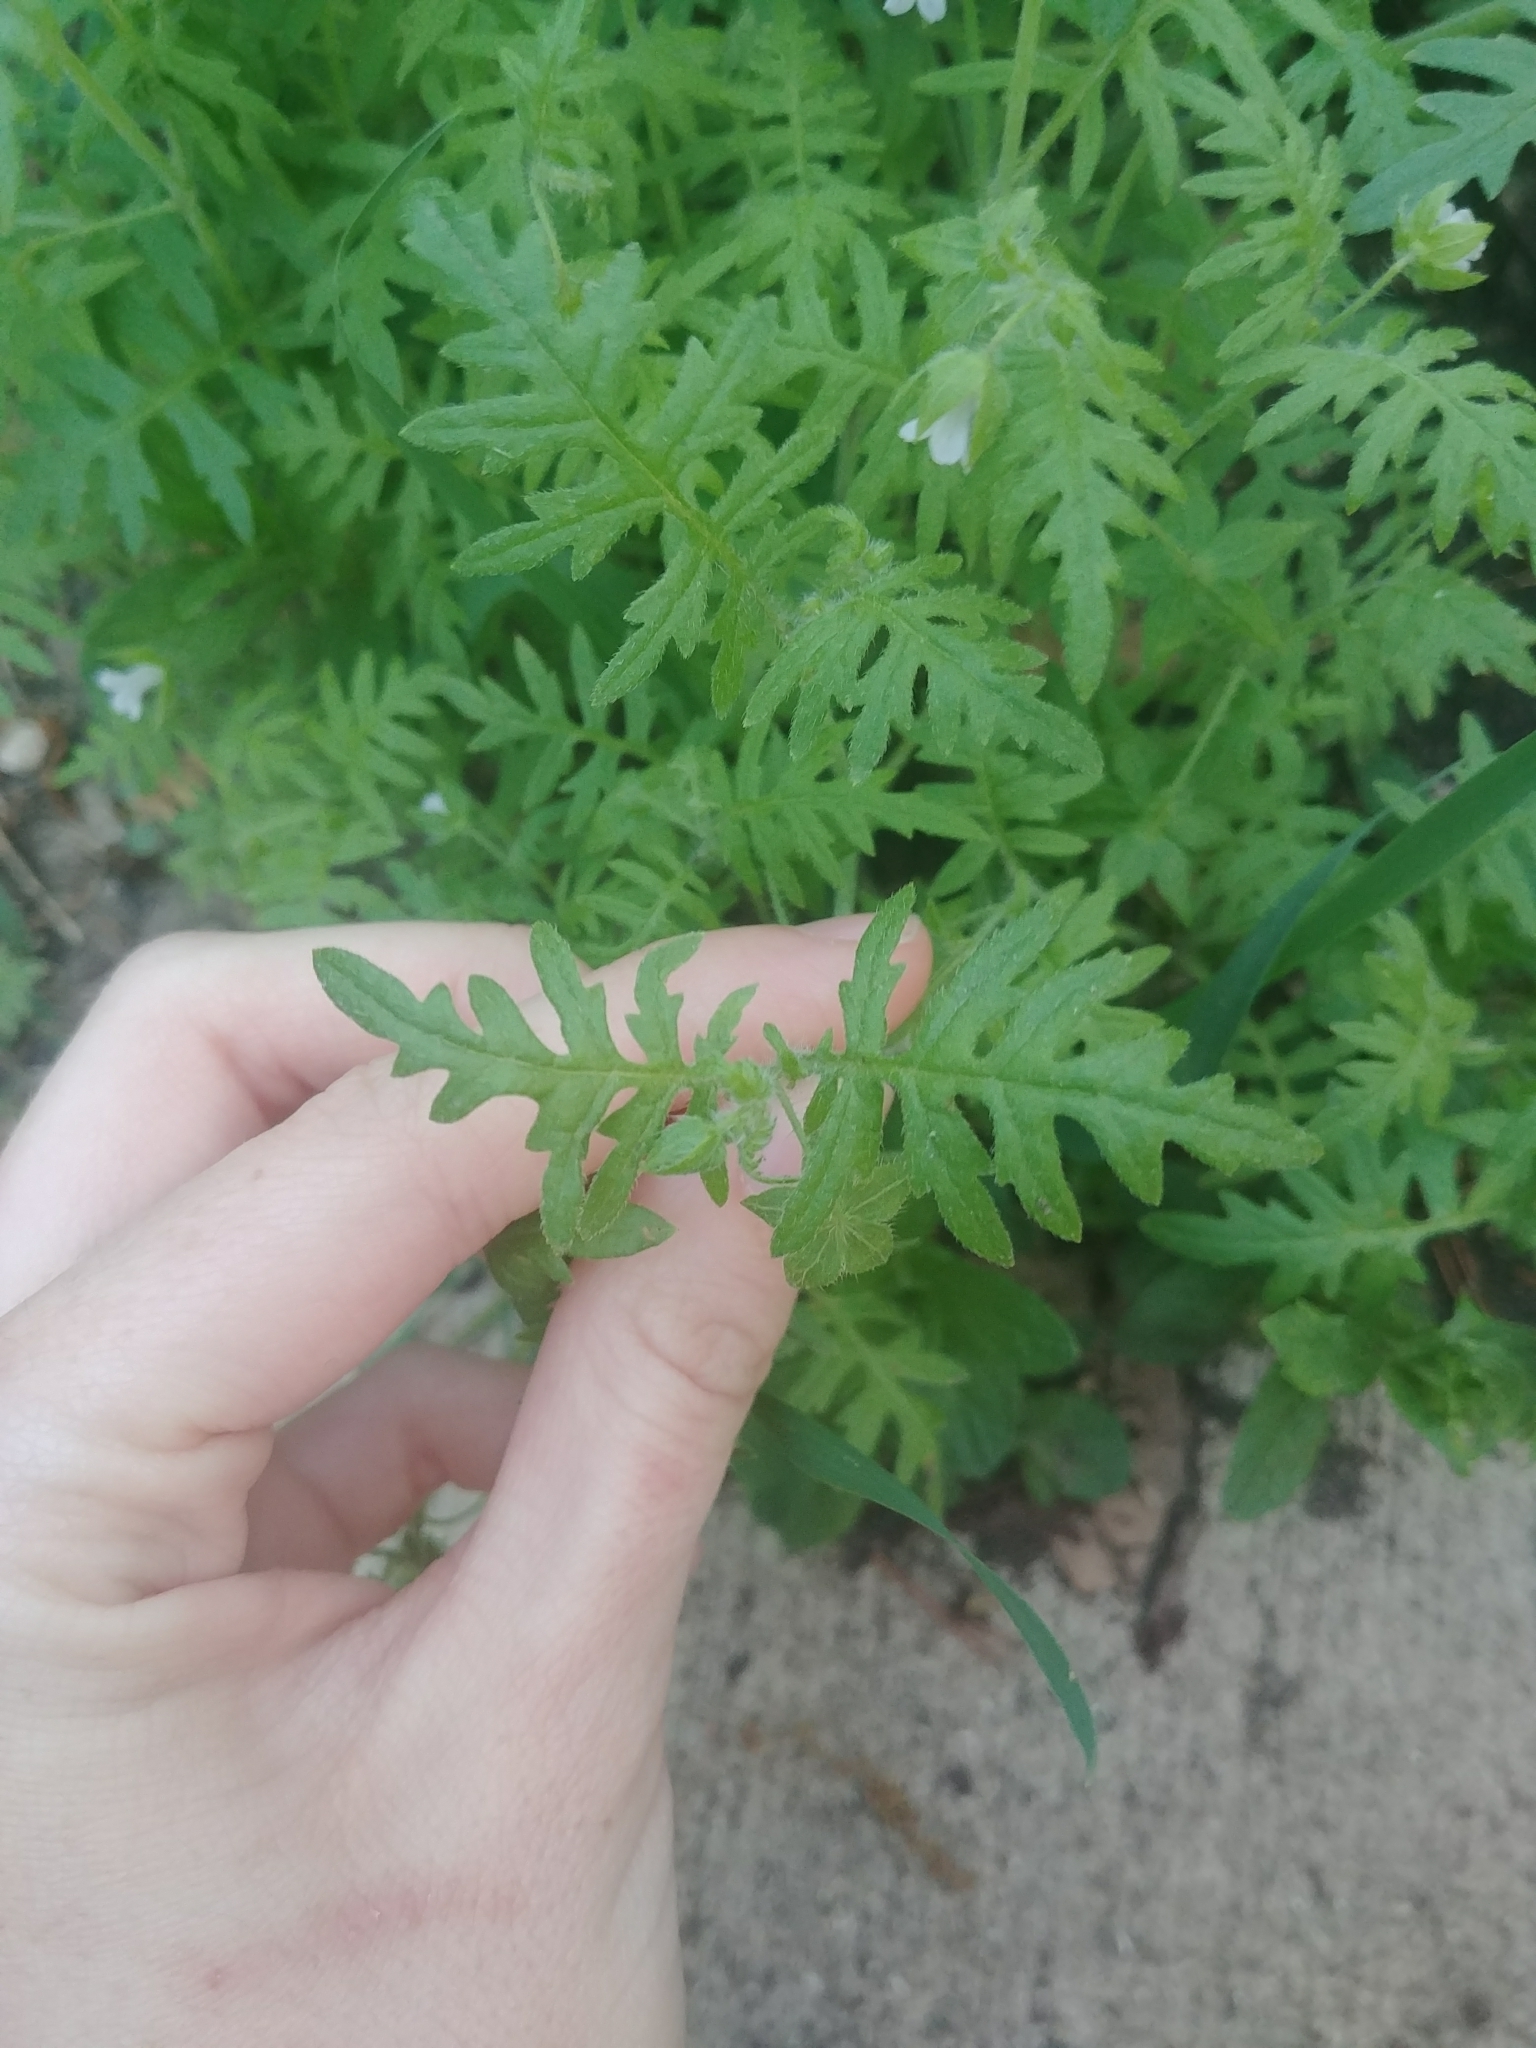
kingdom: Plantae
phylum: Tracheophyta
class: Magnoliopsida
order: Boraginales
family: Hydrophyllaceae
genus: Ellisia
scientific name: Ellisia nyctelea
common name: Aunt lucy
